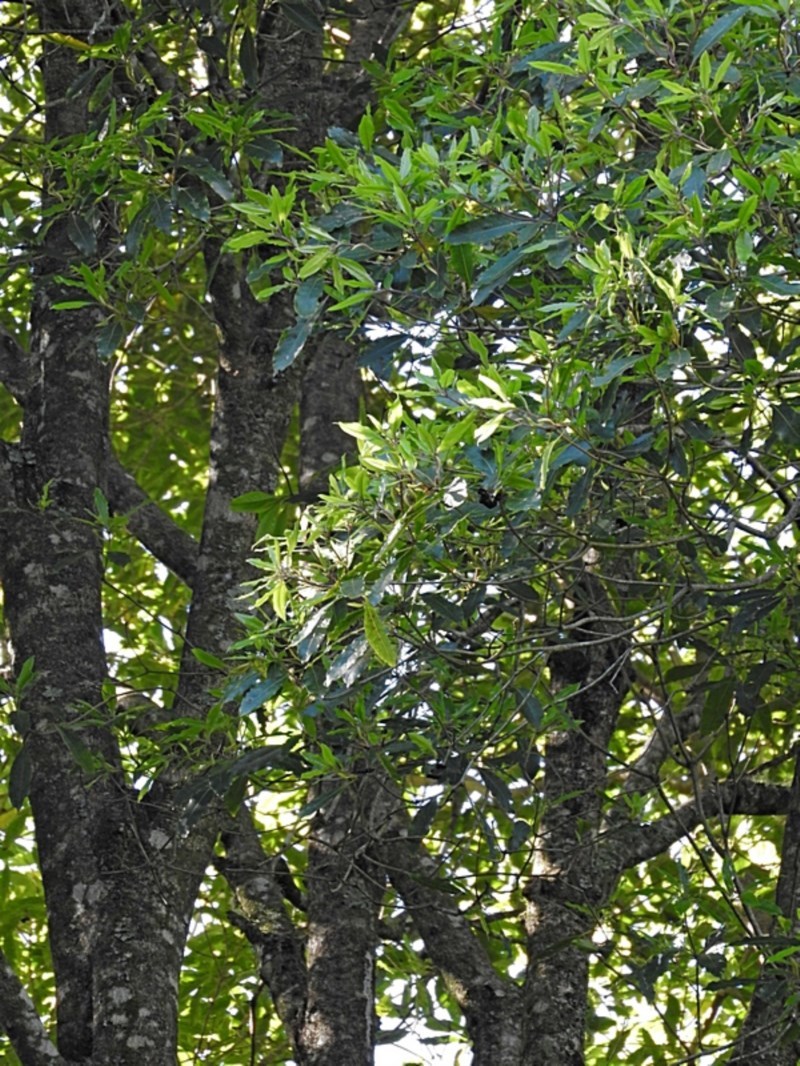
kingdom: Plantae
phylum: Tracheophyta
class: Magnoliopsida
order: Apiales
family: Pittosporaceae
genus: Pittosporum
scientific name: Pittosporum undulatum
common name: Australian cheesewood
